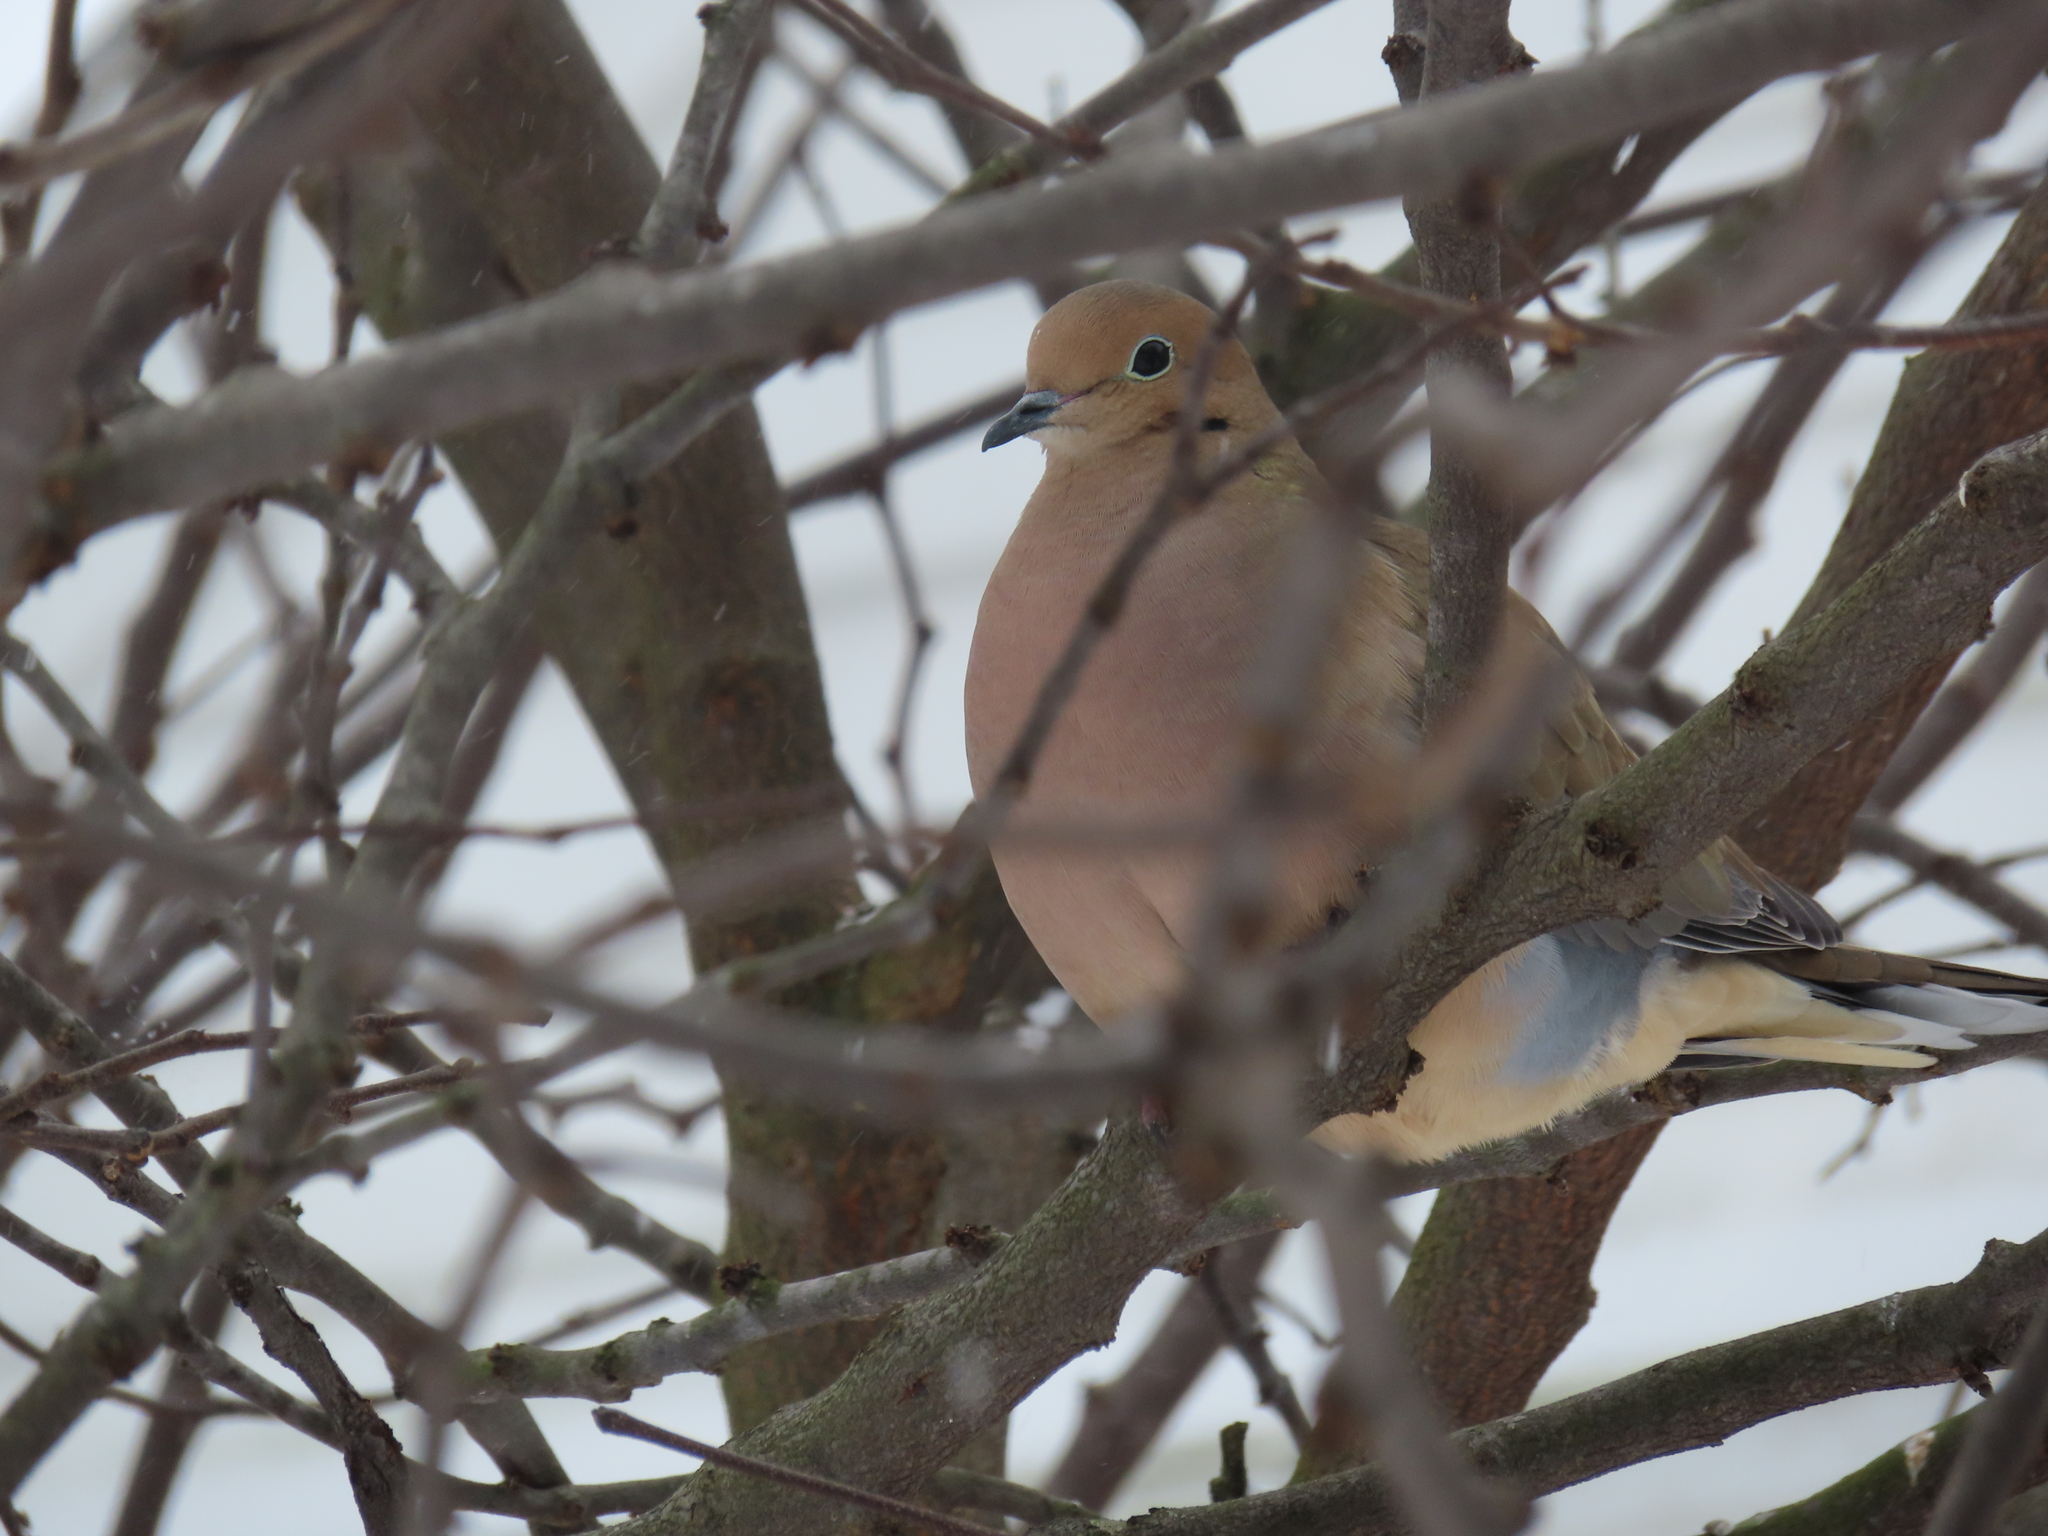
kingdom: Animalia
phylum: Chordata
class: Aves
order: Columbiformes
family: Columbidae
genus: Zenaida
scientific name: Zenaida macroura
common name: Mourning dove
